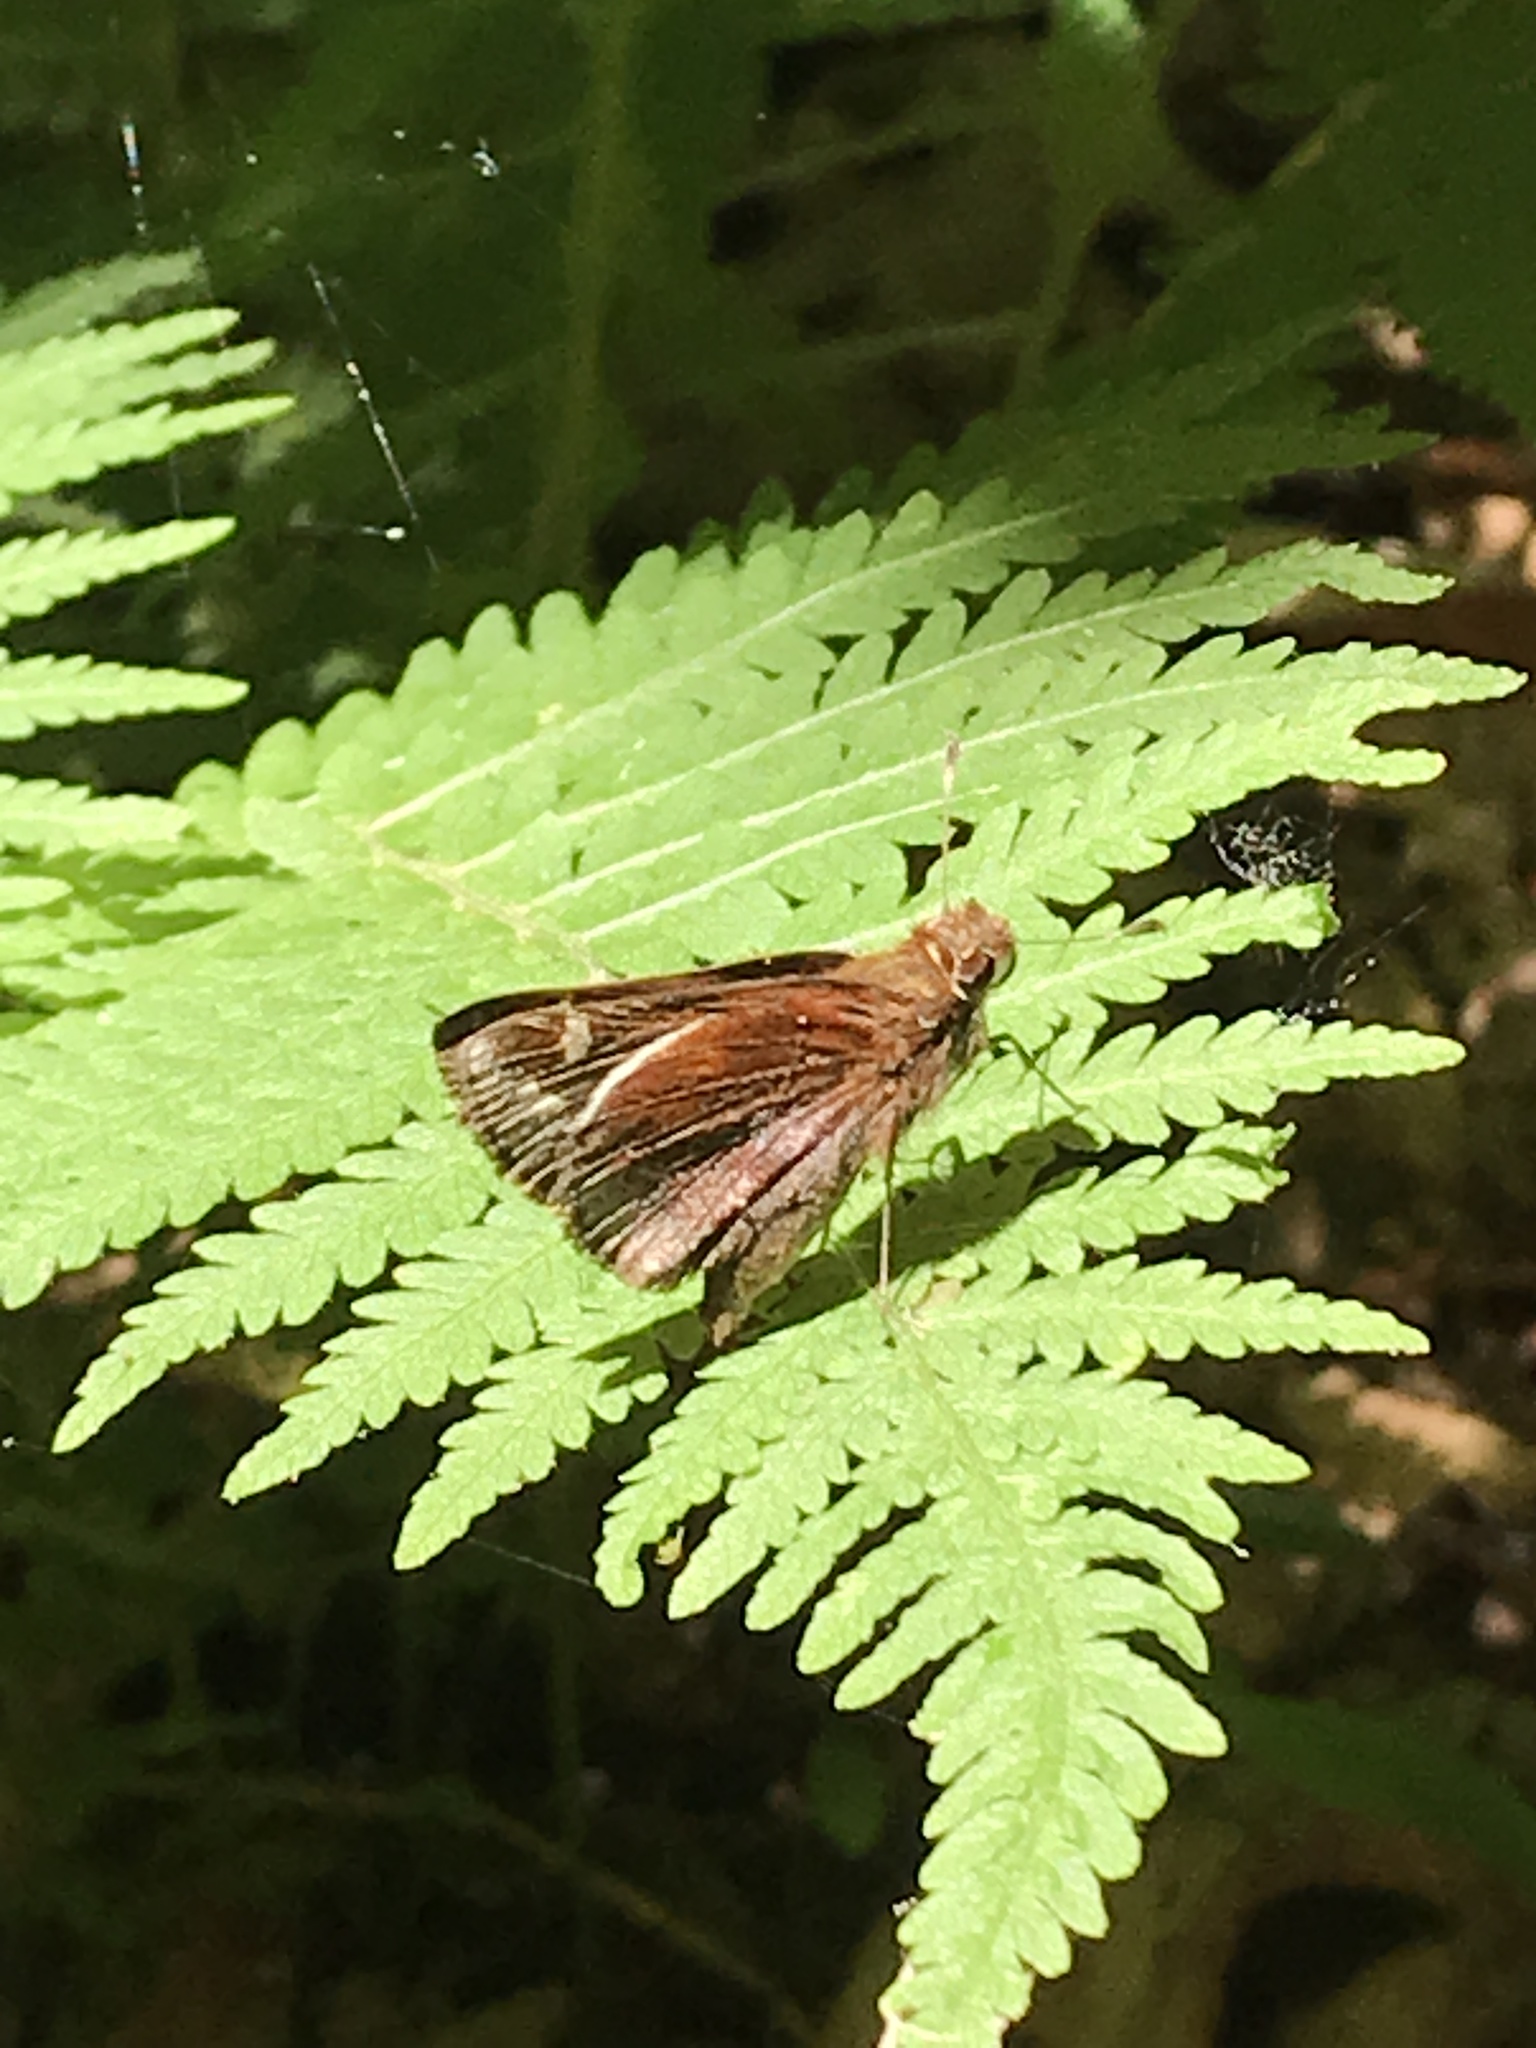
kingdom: Animalia
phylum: Arthropoda
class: Insecta
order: Lepidoptera
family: Hesperiidae
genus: Lon
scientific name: Lon zabulon
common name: Zabulon skipper
